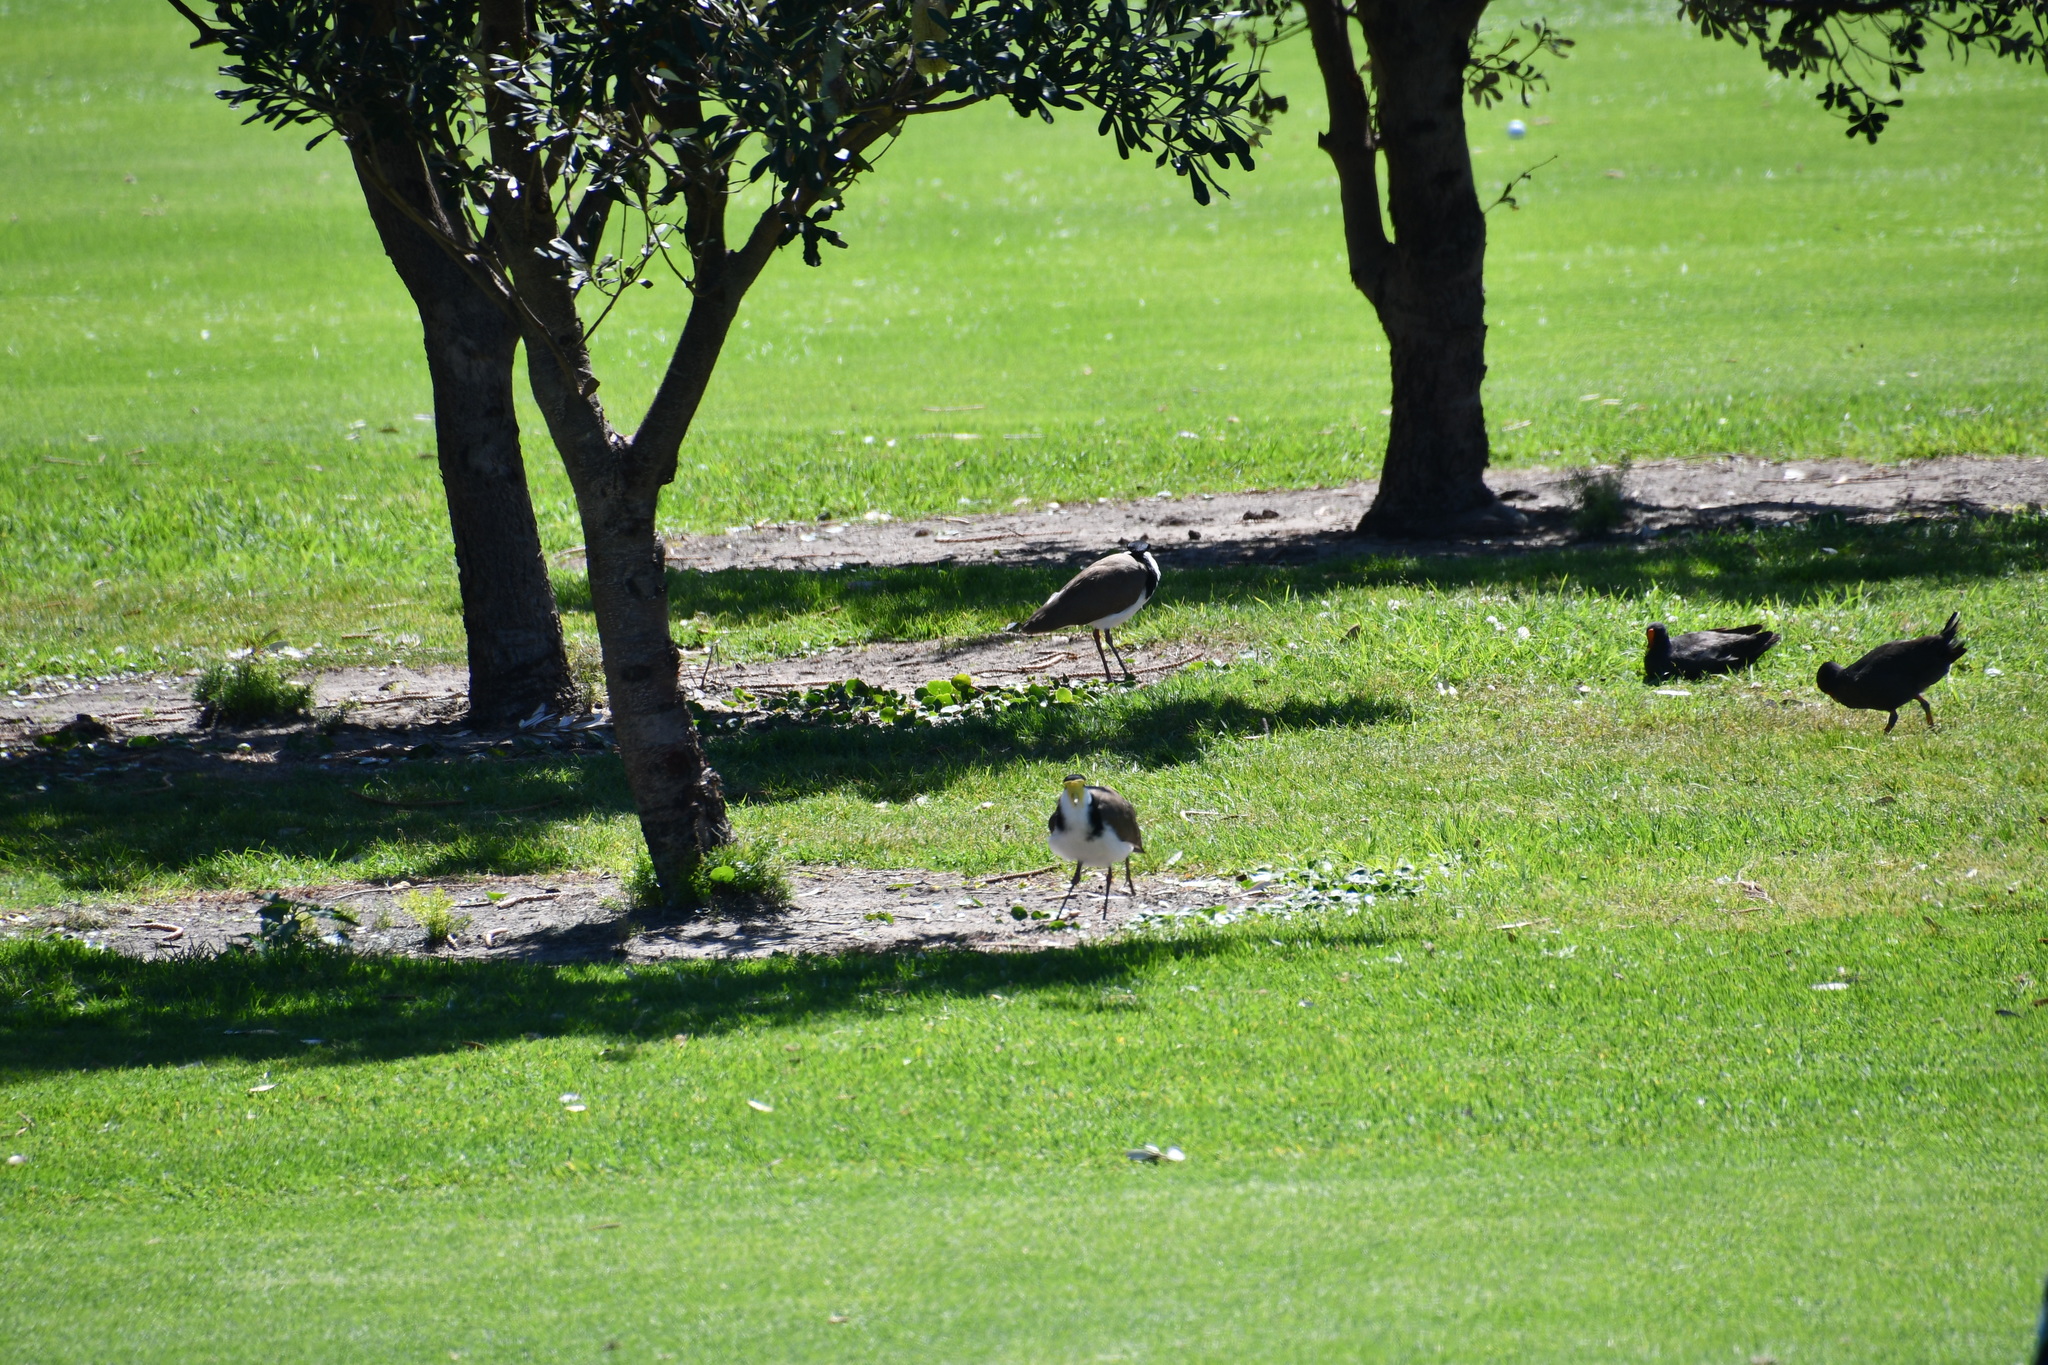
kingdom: Animalia
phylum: Chordata
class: Aves
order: Charadriiformes
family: Charadriidae
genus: Vanellus
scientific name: Vanellus miles
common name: Masked lapwing
